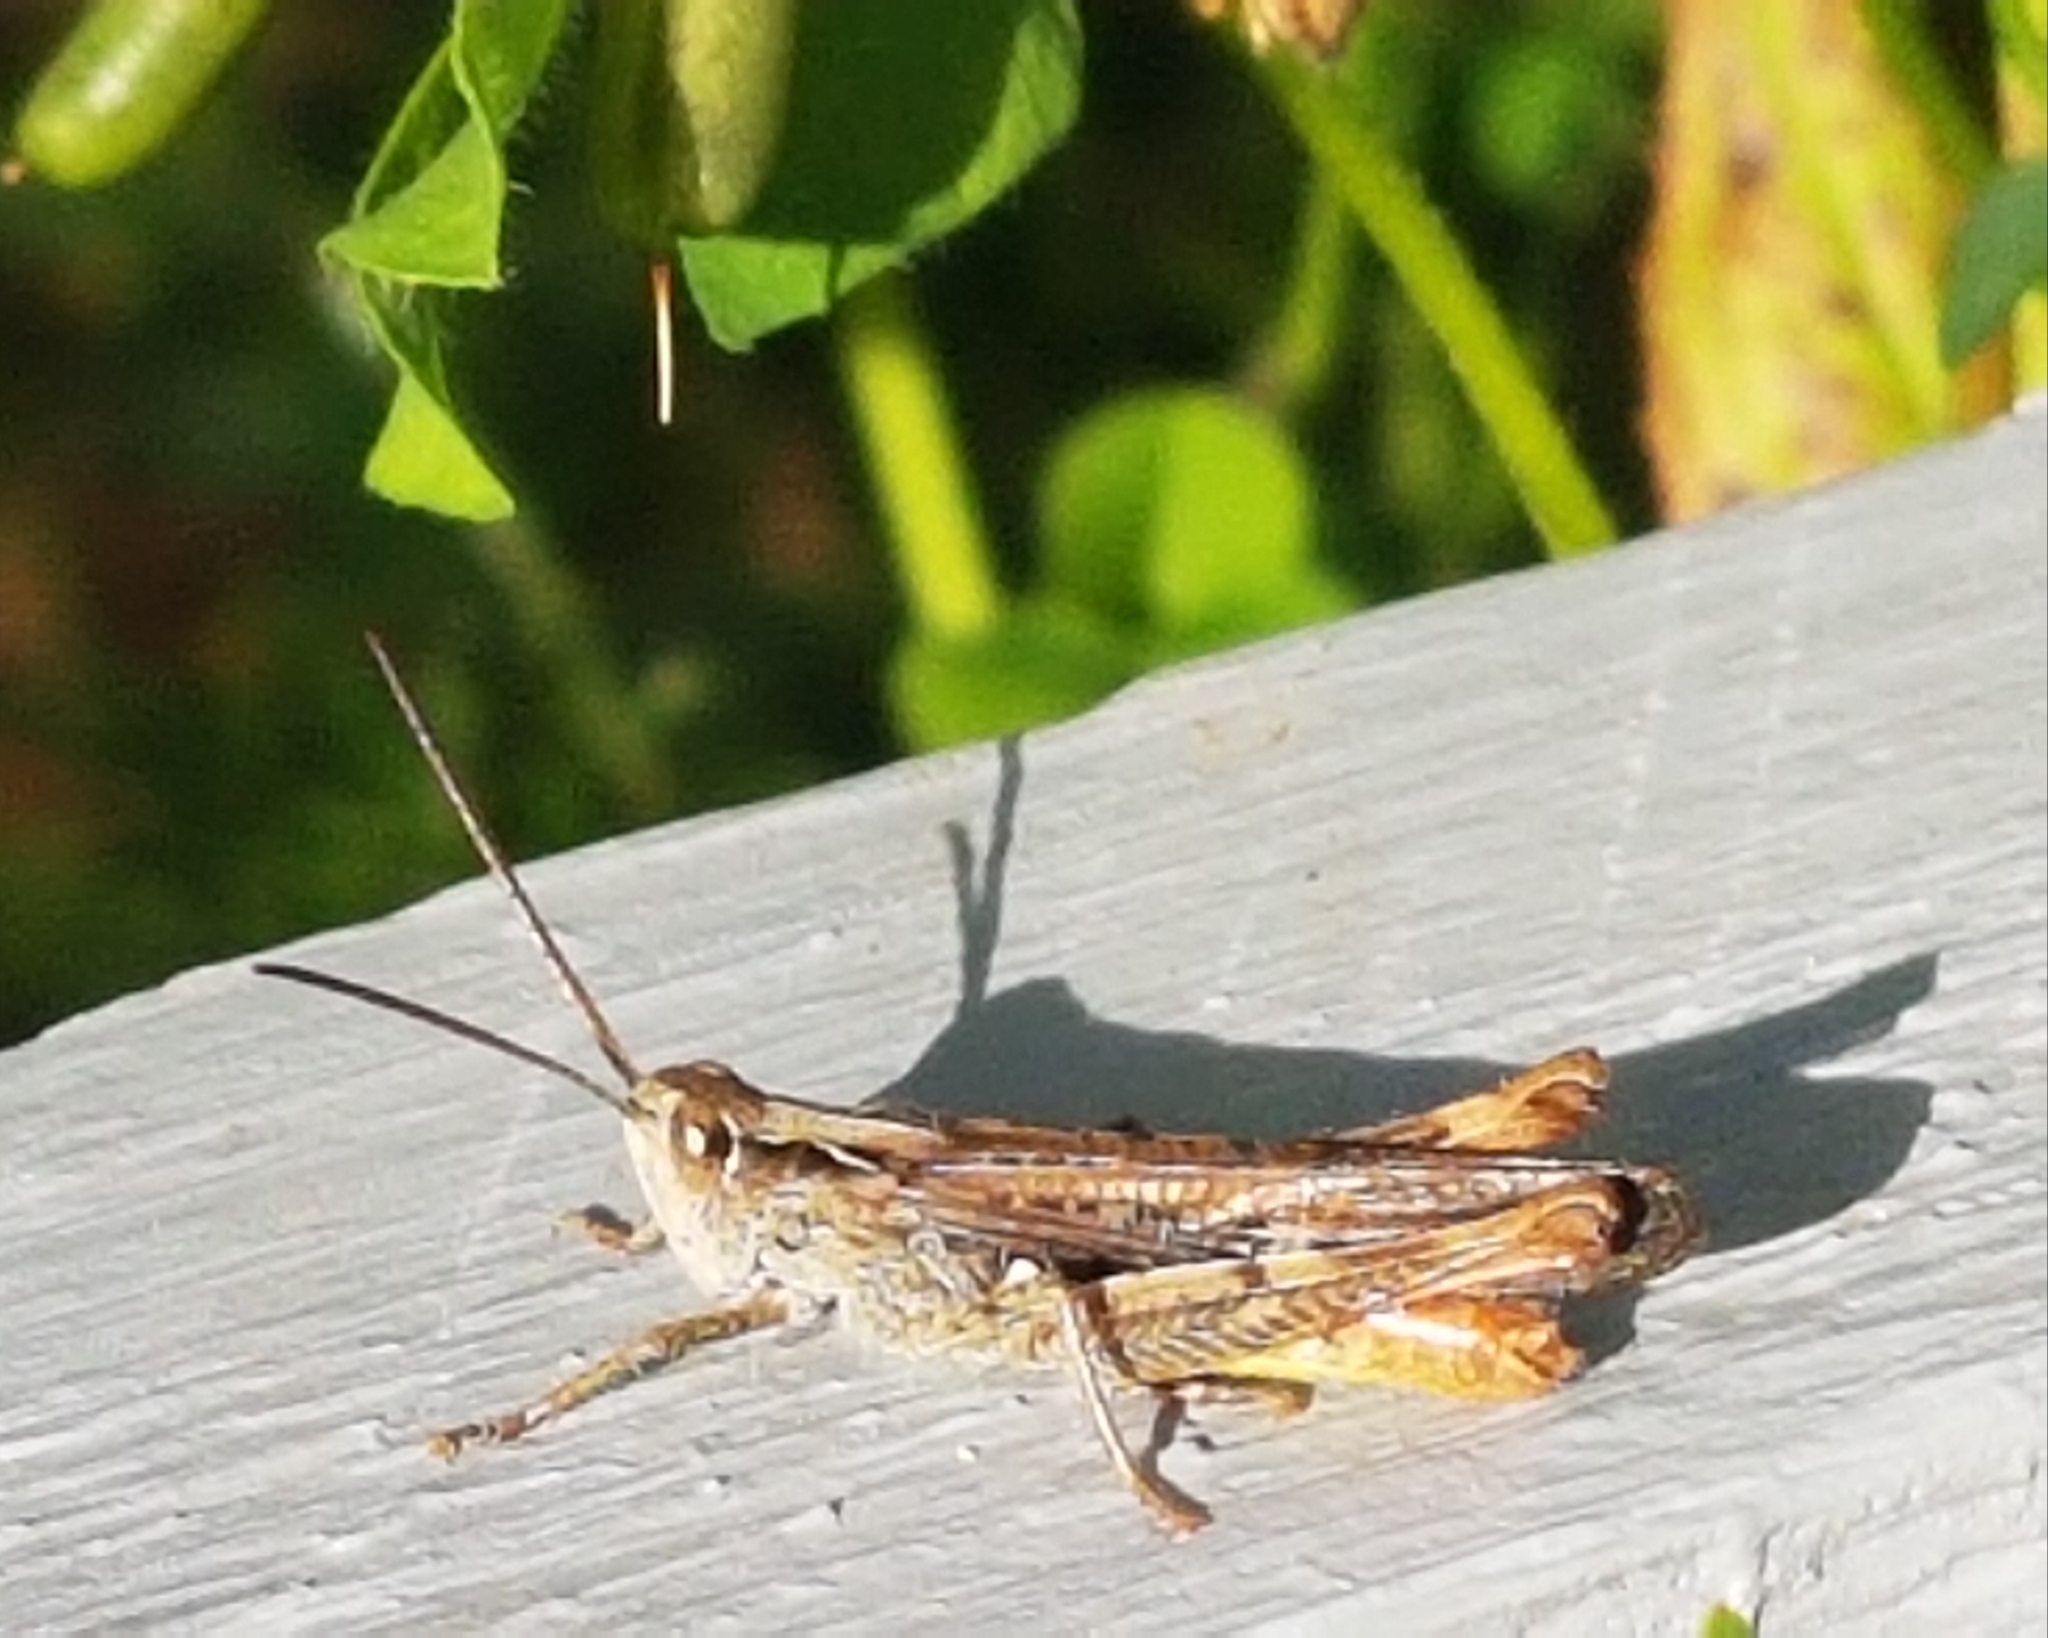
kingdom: Animalia
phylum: Arthropoda
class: Insecta
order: Orthoptera
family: Acrididae
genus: Chorthippus
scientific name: Chorthippus brunneus
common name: Field grasshopper
